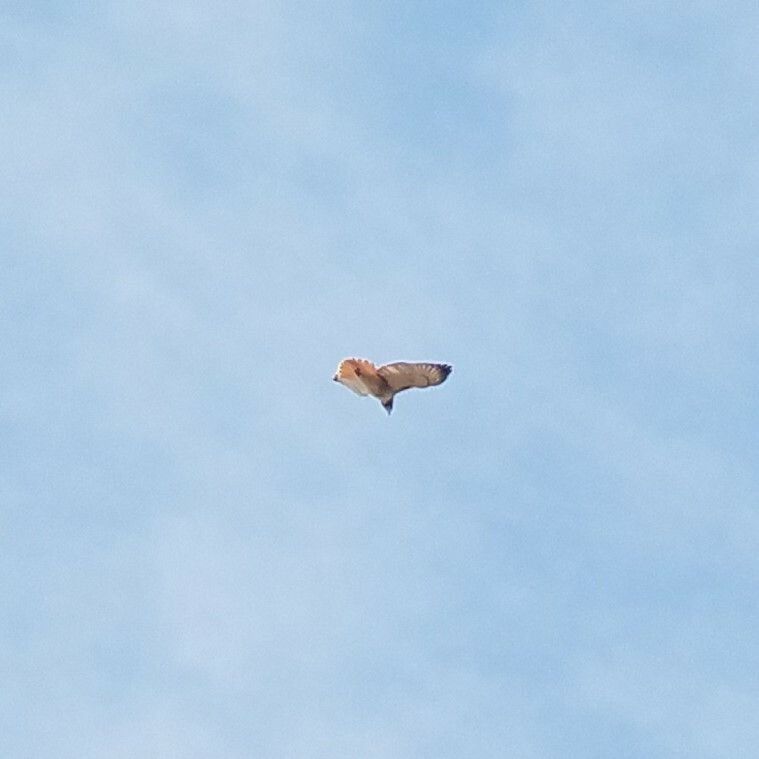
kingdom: Animalia
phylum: Chordata
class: Aves
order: Accipitriformes
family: Accipitridae
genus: Buteo
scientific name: Buteo jamaicensis
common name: Red-tailed hawk
